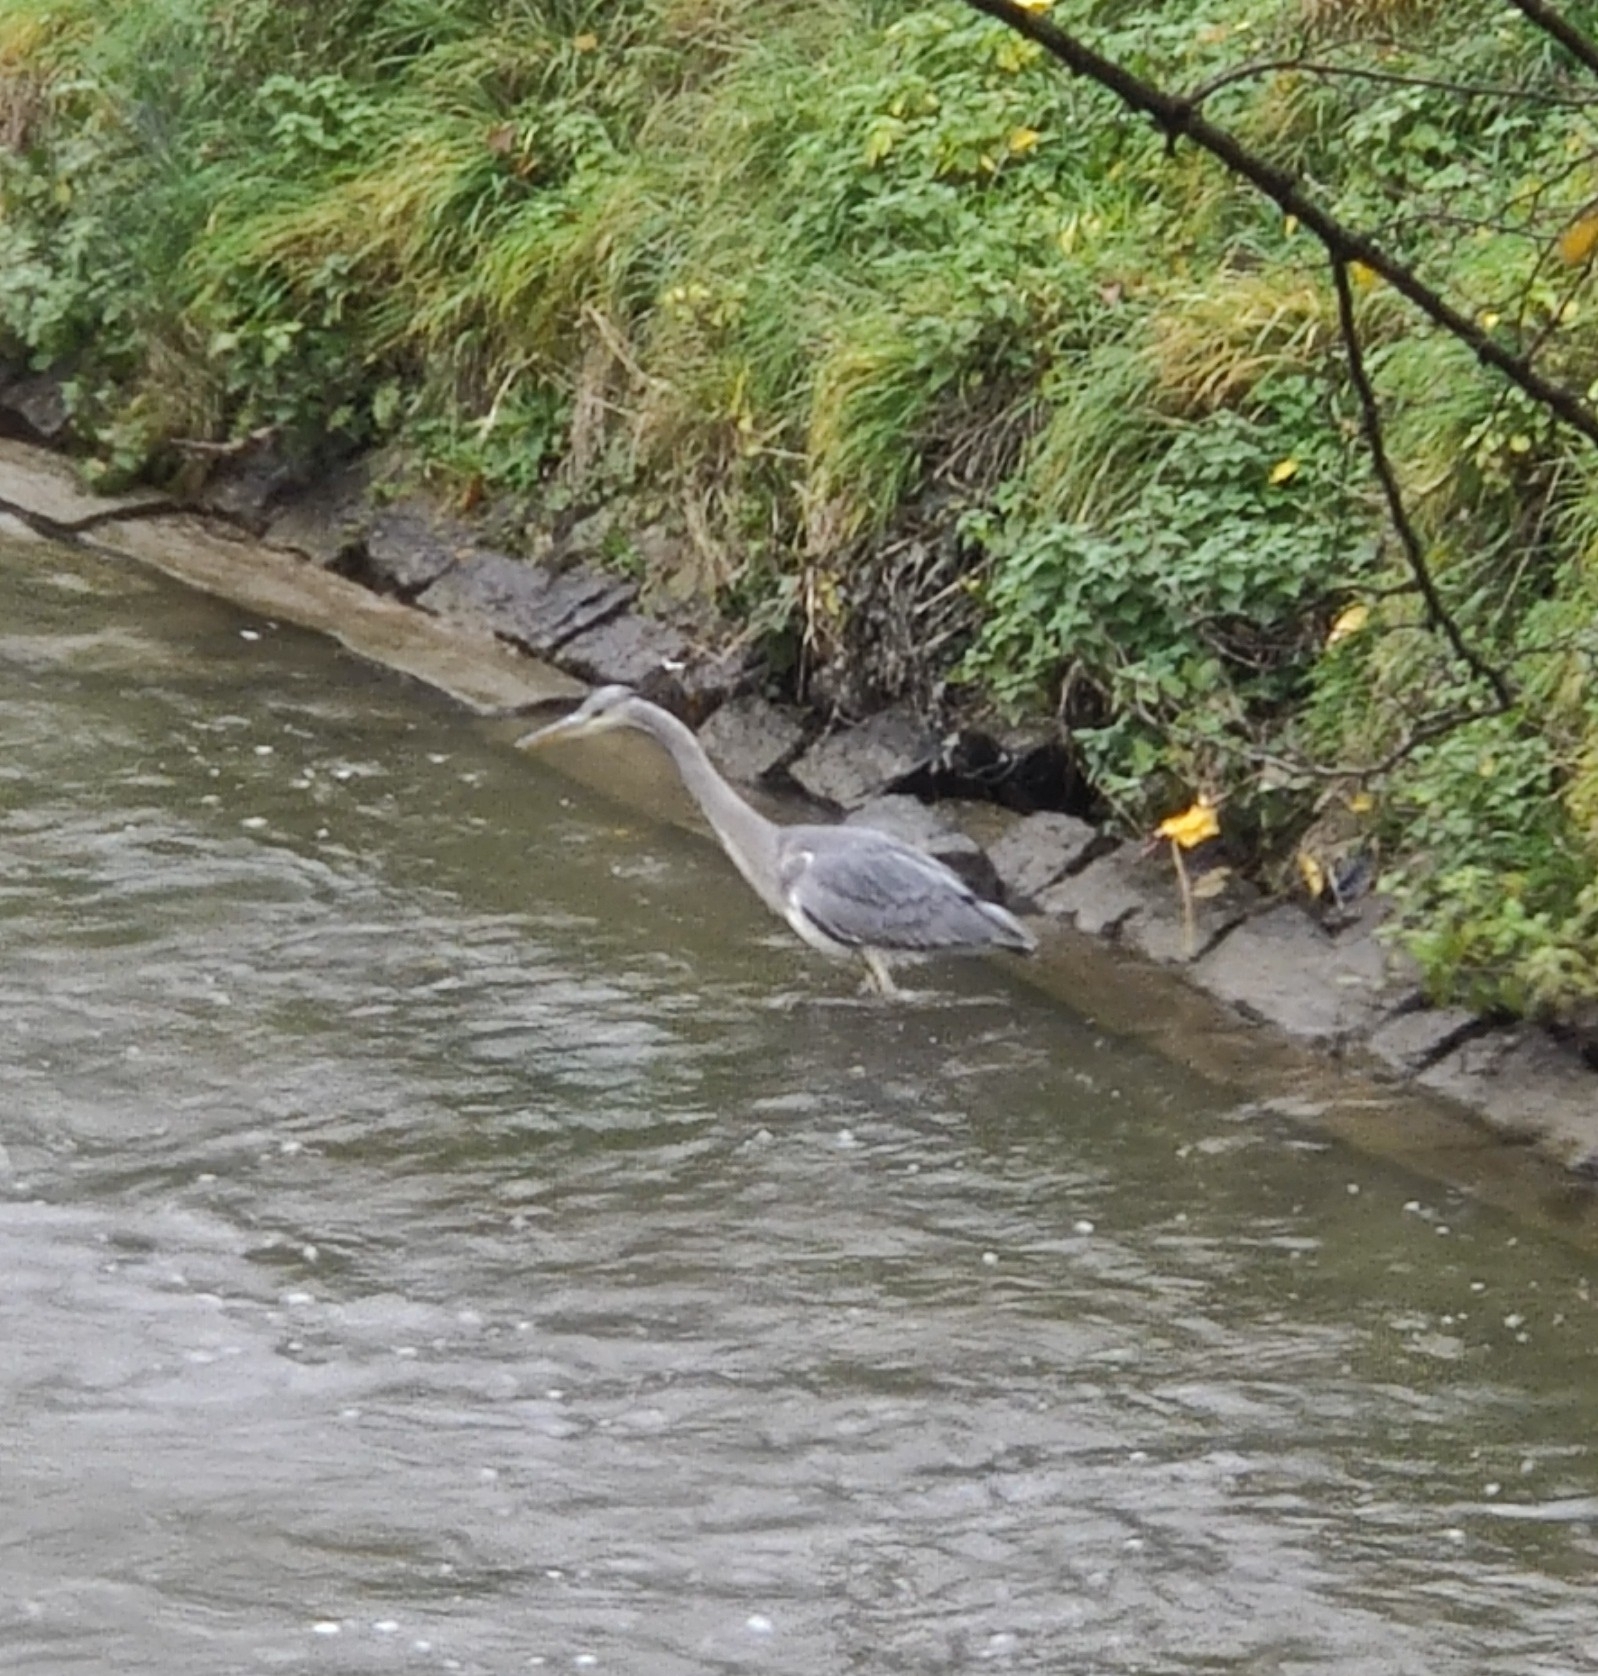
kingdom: Animalia
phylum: Chordata
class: Aves
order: Pelecaniformes
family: Ardeidae
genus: Ardea
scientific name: Ardea cinerea
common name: Grey heron
